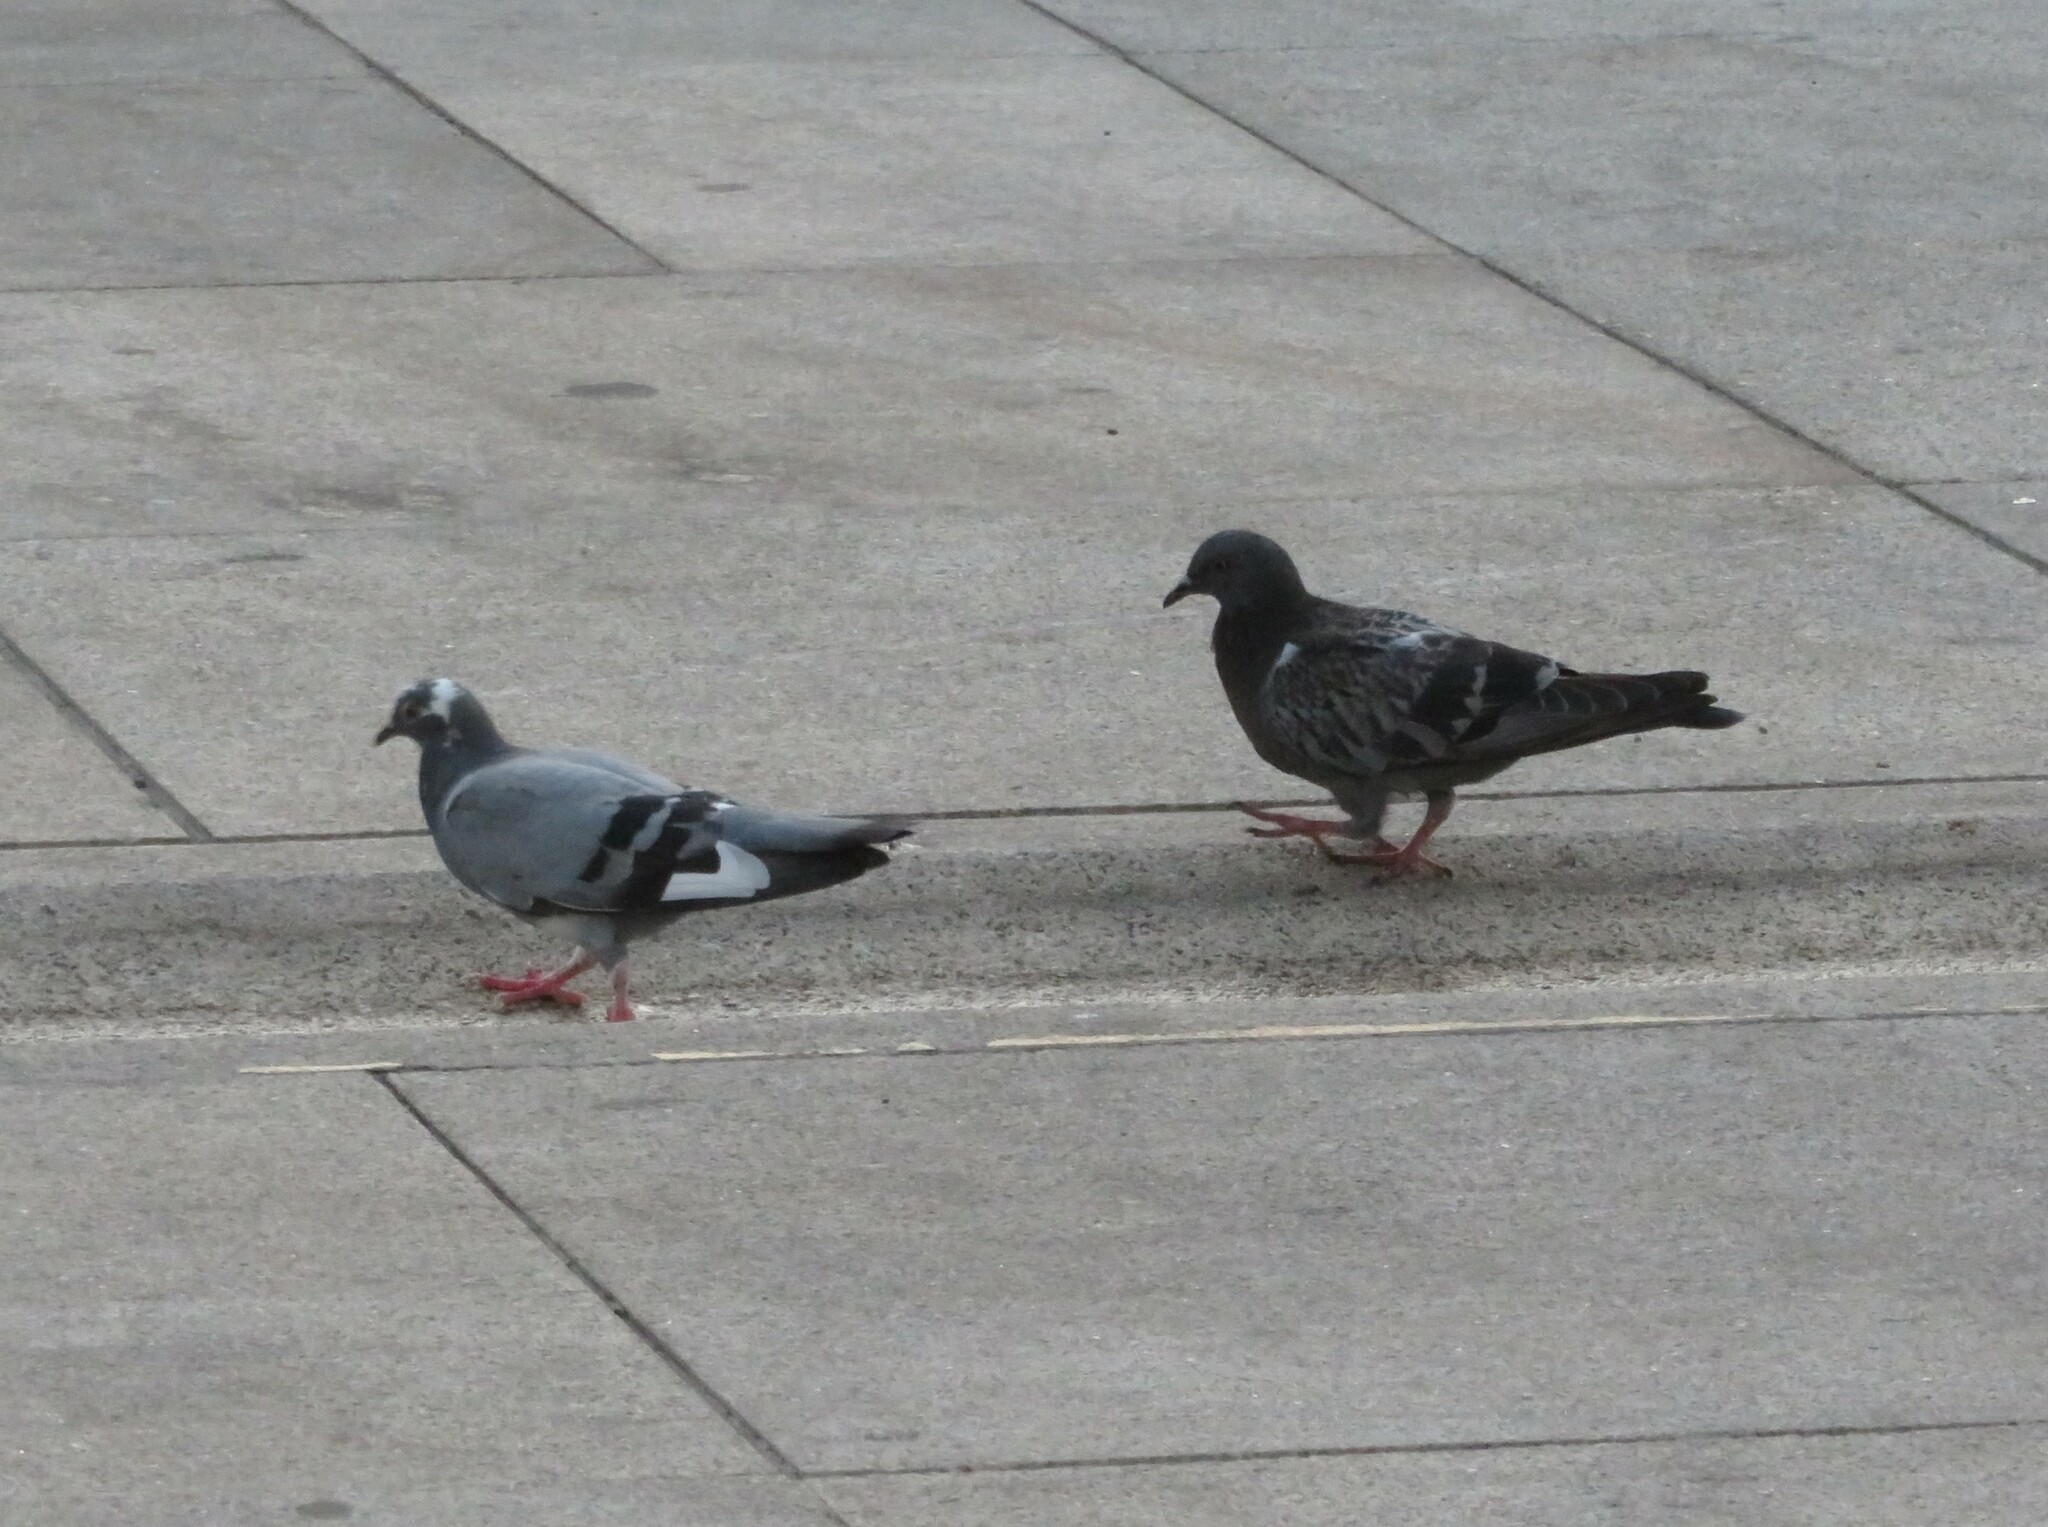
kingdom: Animalia
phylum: Chordata
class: Aves
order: Columbiformes
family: Columbidae
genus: Columba
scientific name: Columba livia
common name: Rock pigeon
